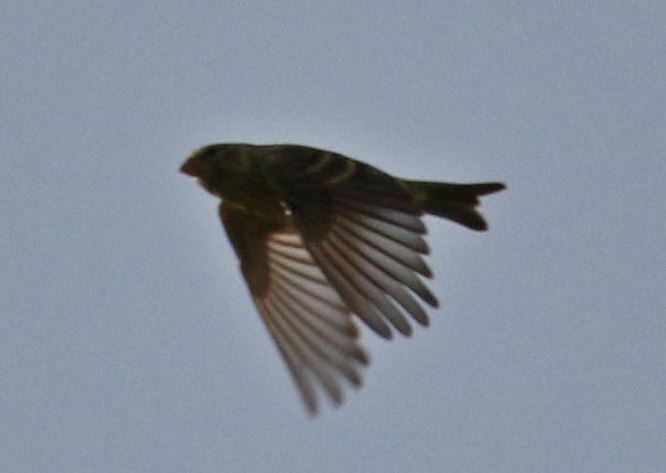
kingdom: Animalia
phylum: Chordata
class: Aves
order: Passeriformes
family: Fringillidae
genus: Serinus
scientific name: Serinus serinus
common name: European serin
